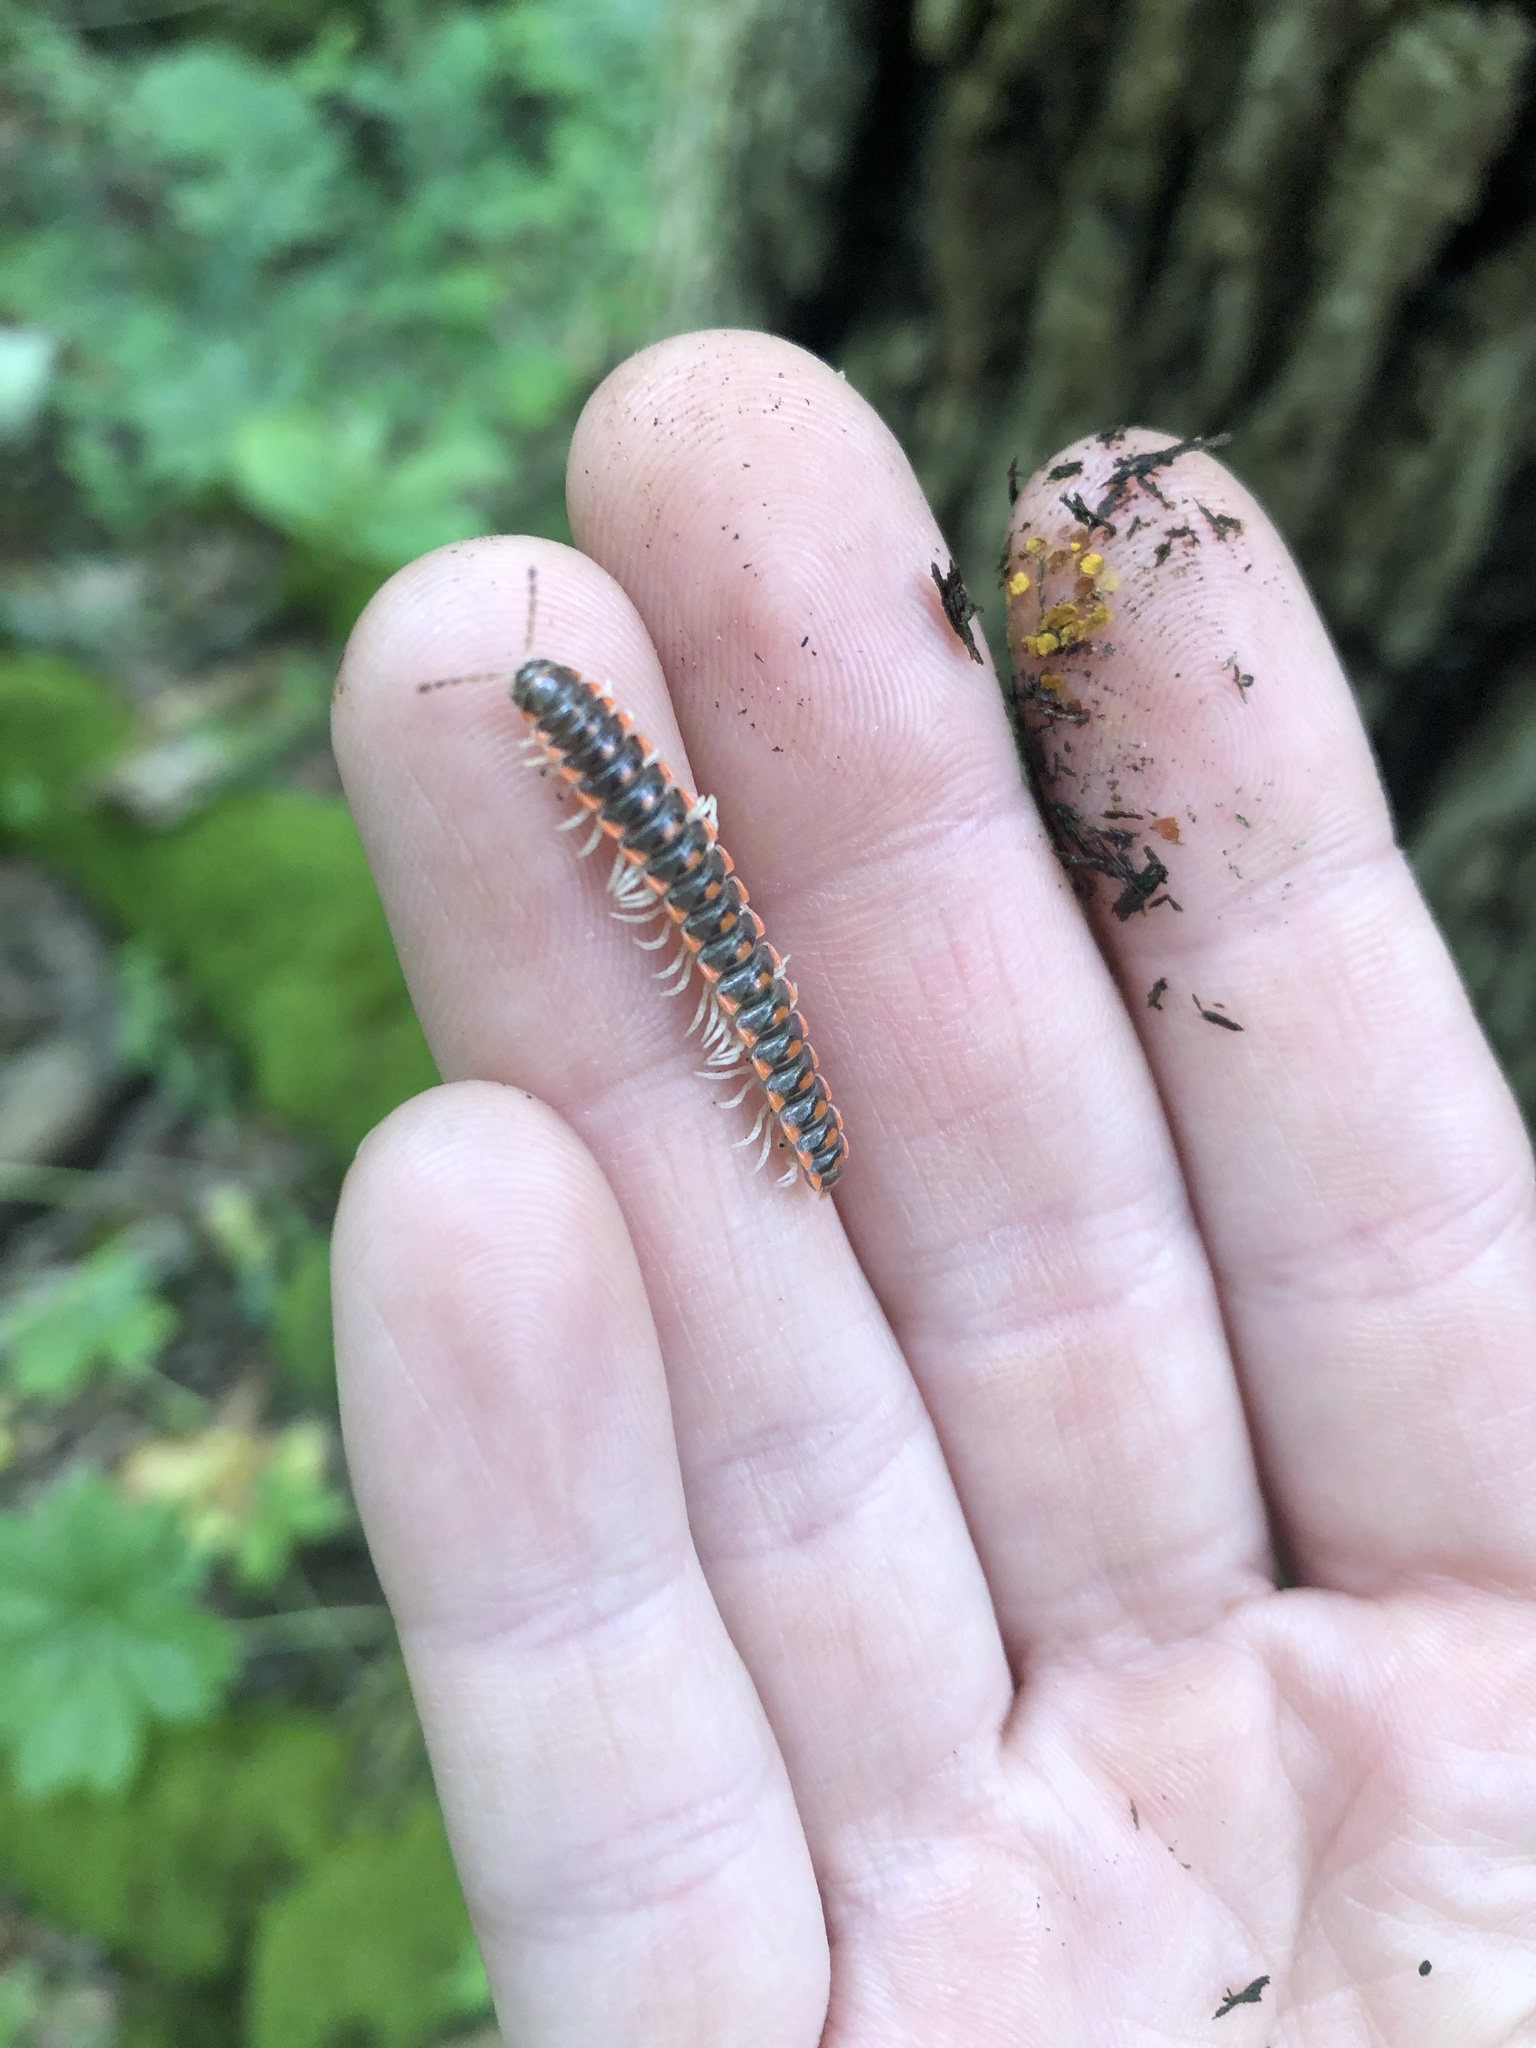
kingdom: Animalia
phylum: Arthropoda
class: Diplopoda
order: Polydesmida
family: Xystodesmidae
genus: Euryurus
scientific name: Euryurus leachii
